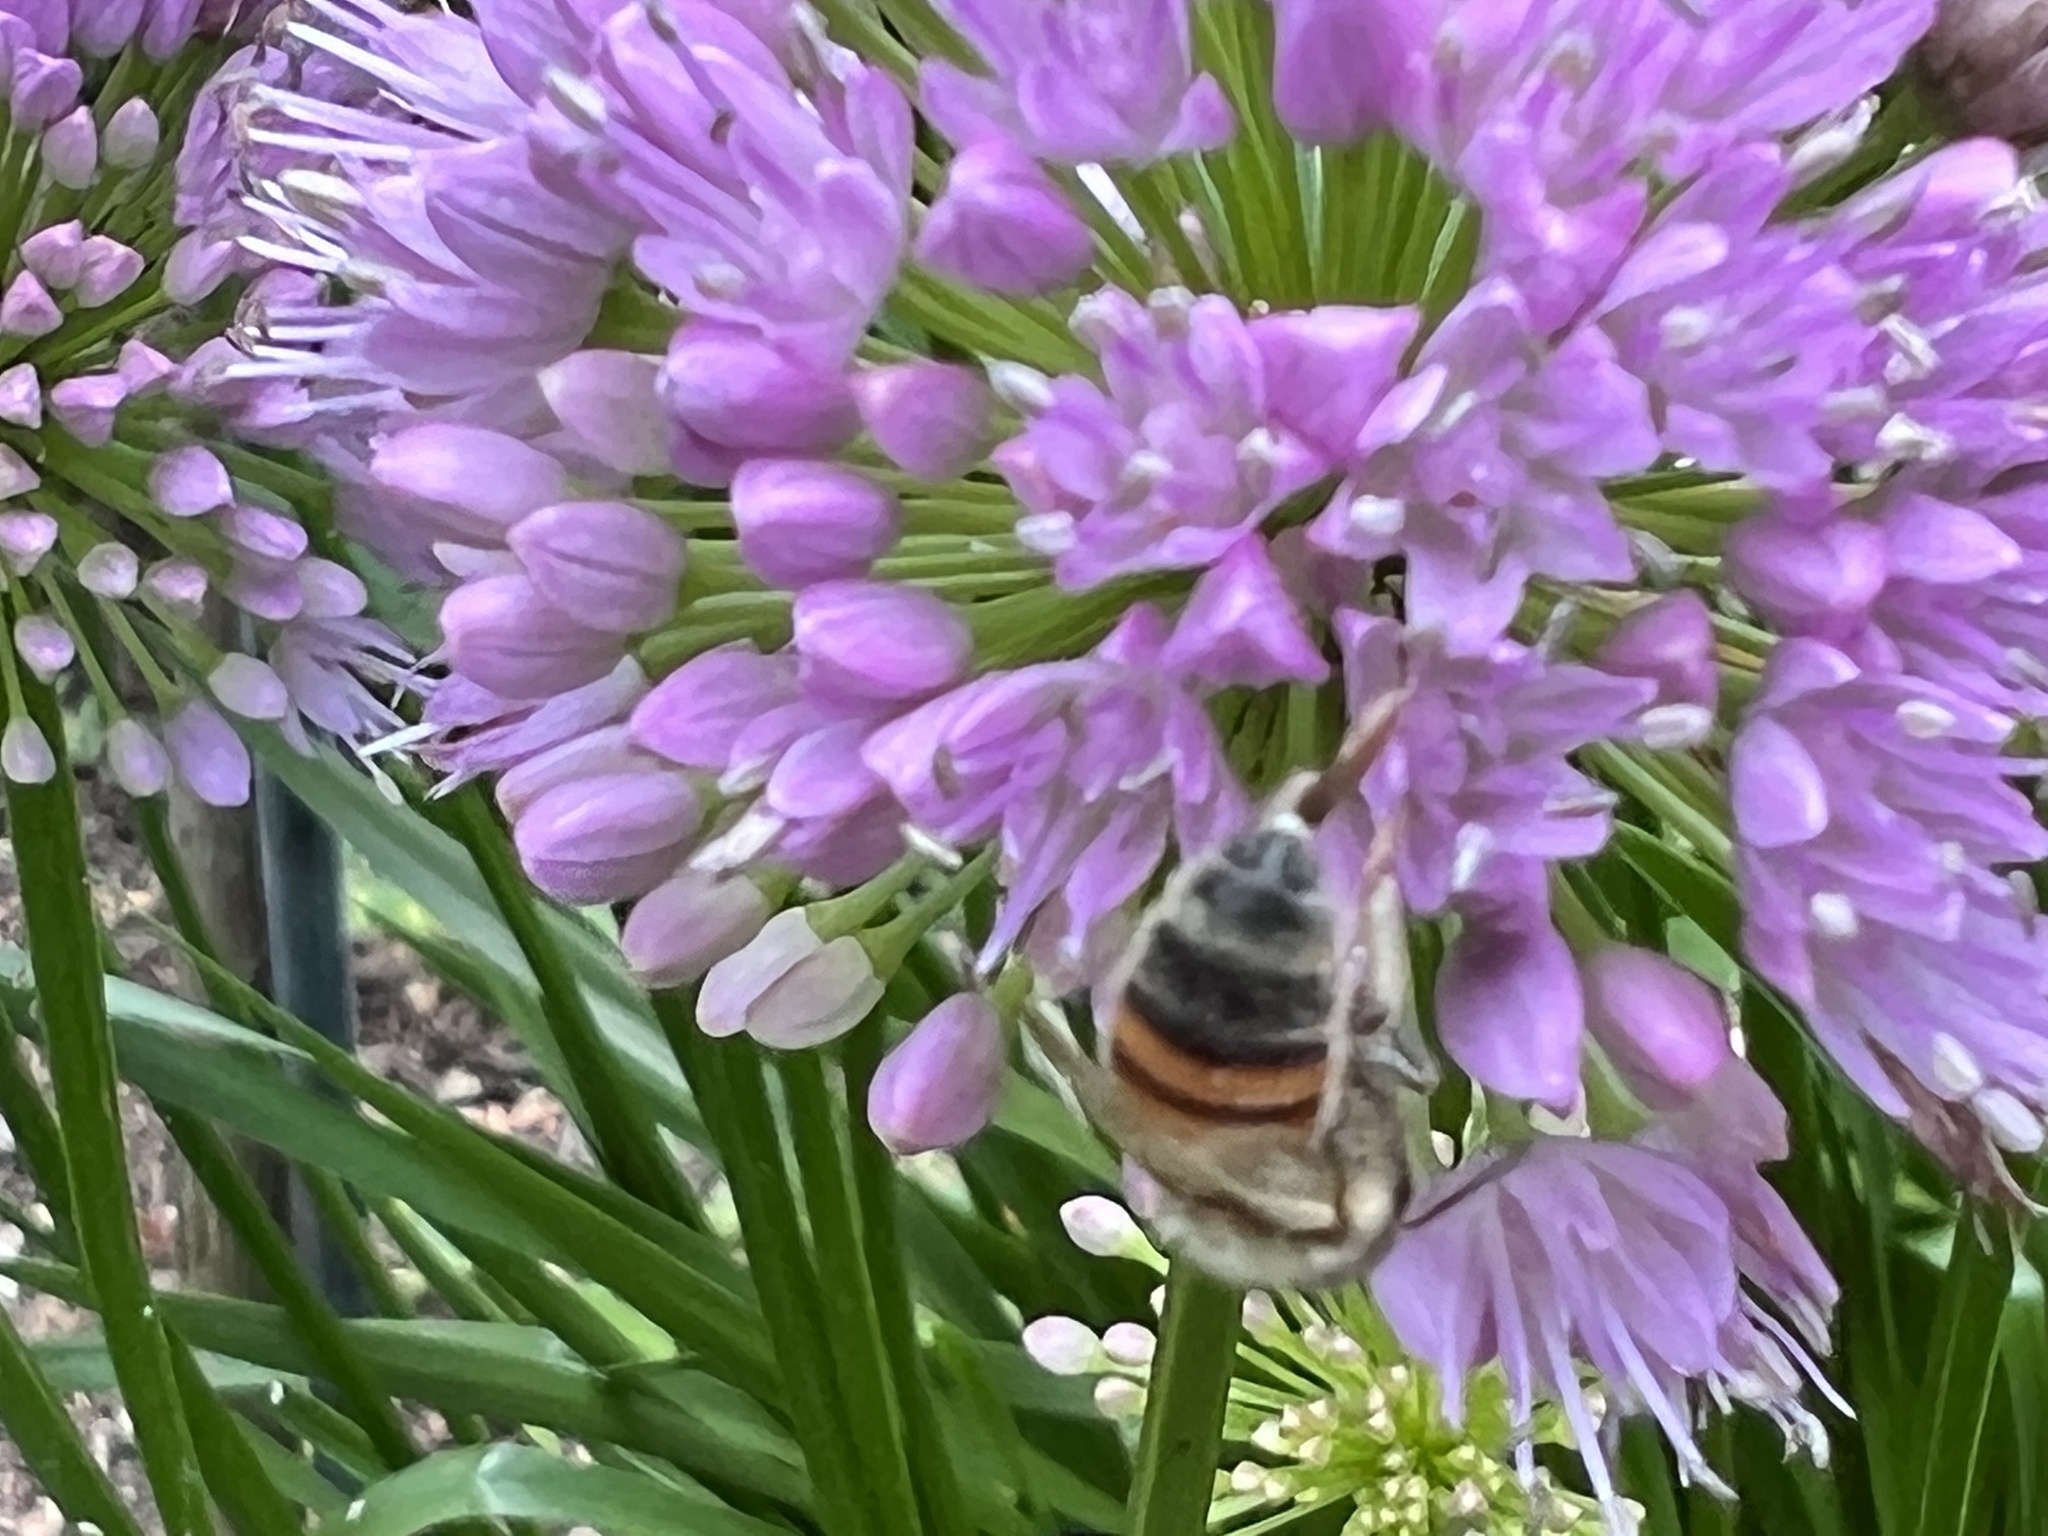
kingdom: Animalia
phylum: Arthropoda
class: Insecta
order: Hymenoptera
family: Apidae
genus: Apis
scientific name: Apis mellifera
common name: Honey bee
